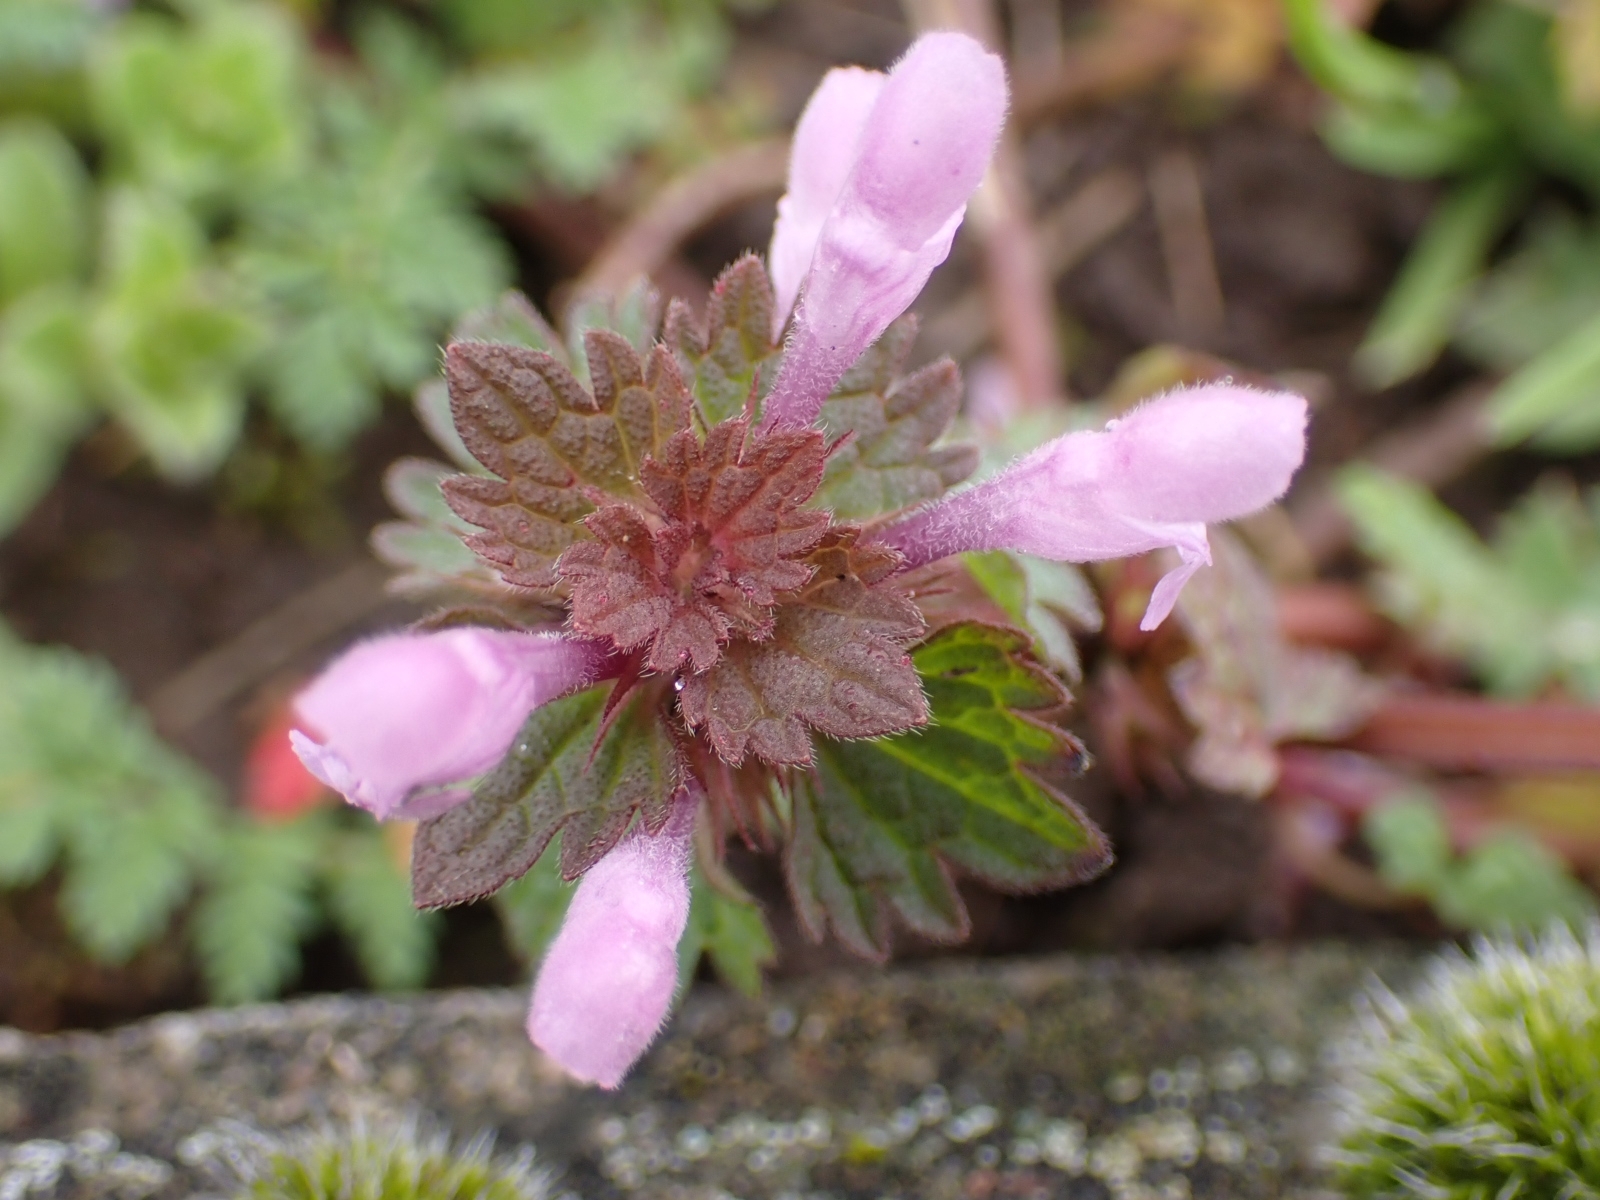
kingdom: Plantae
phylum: Tracheophyta
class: Magnoliopsida
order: Lamiales
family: Lamiaceae
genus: Lamium
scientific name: Lamium hybridum
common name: Cut-leaved dead-nettle
